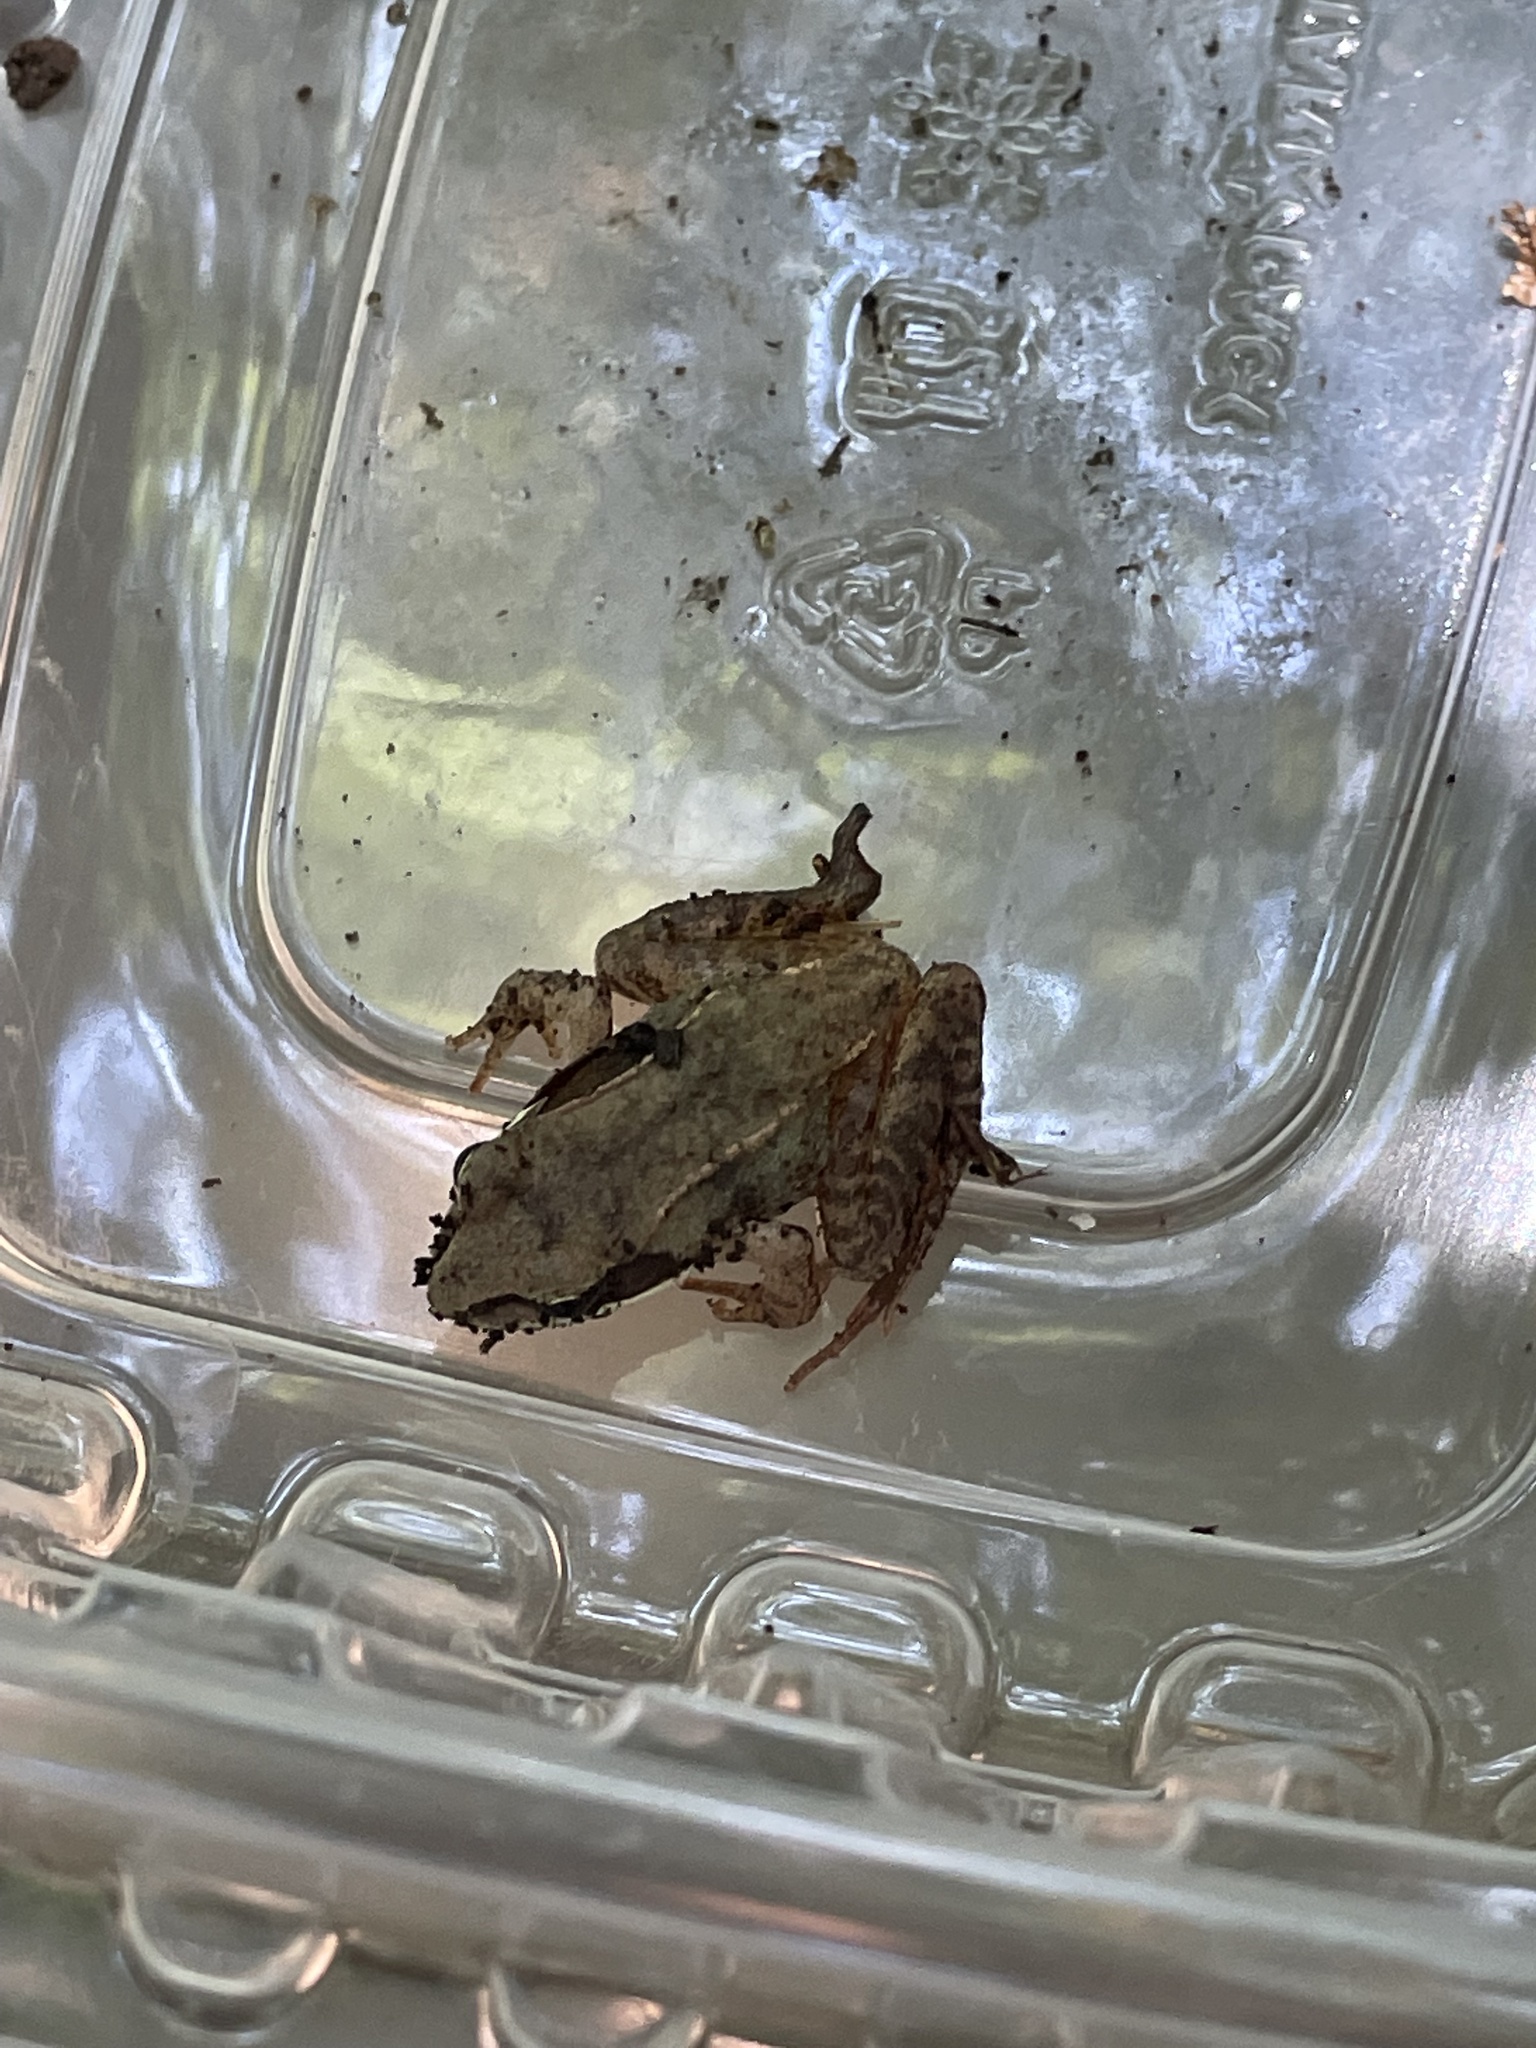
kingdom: Animalia
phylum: Chordata
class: Amphibia
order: Anura
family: Ranidae
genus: Lithobates
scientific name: Lithobates sylvaticus
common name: Wood frog
